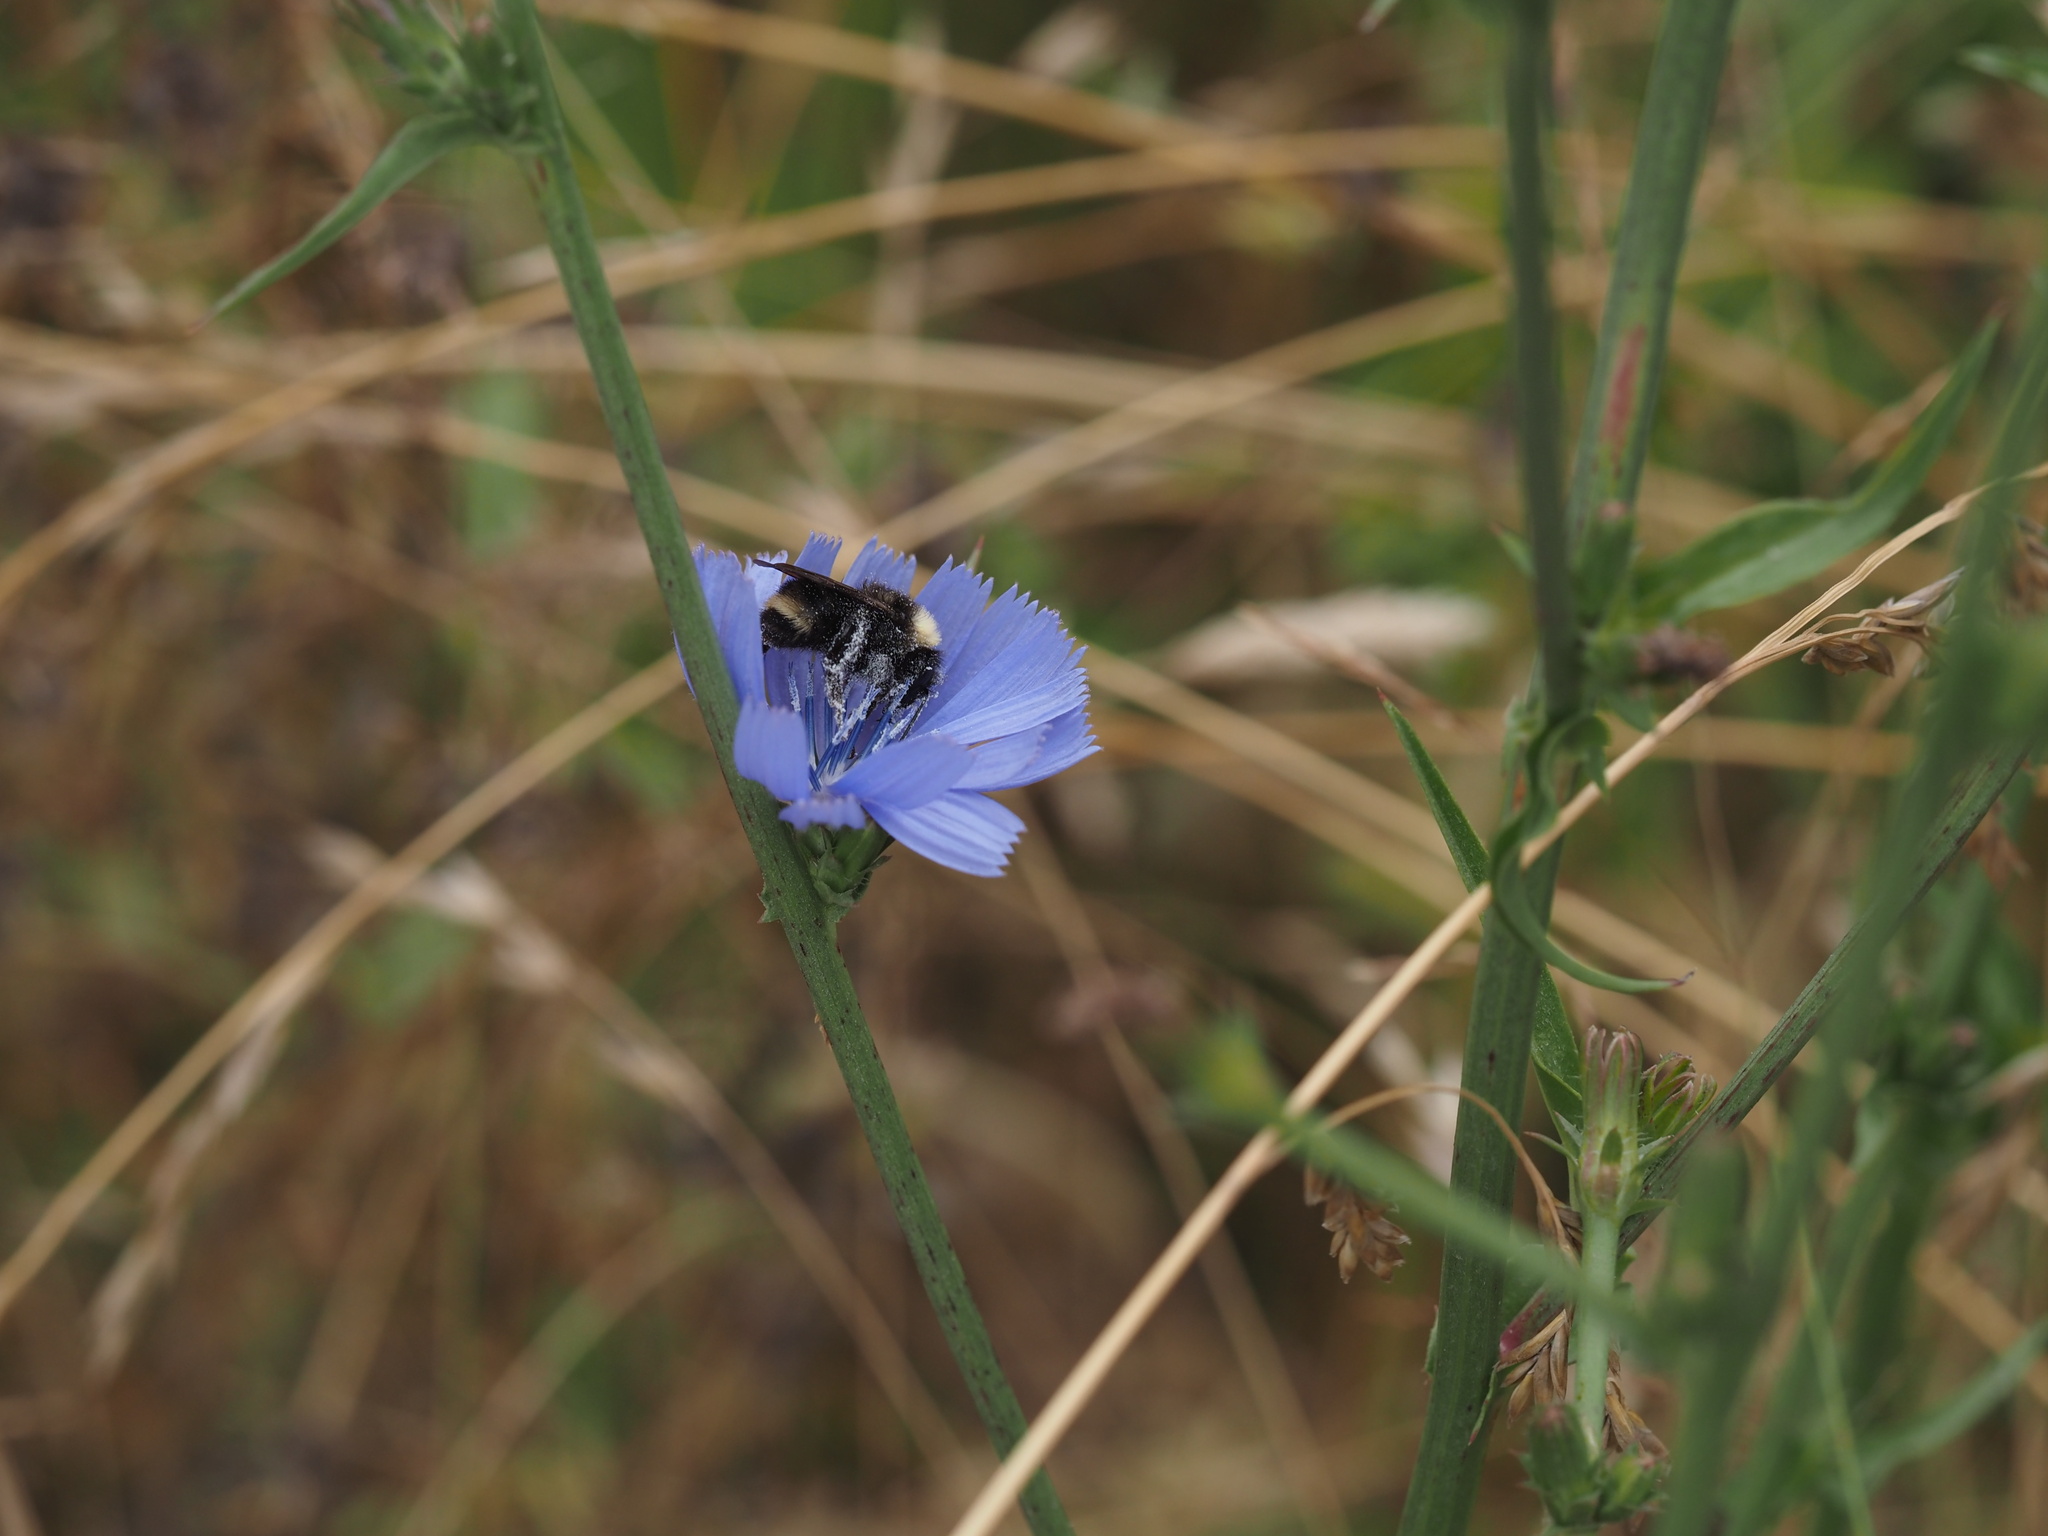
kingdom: Plantae
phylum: Tracheophyta
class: Magnoliopsida
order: Asterales
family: Asteraceae
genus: Cichorium
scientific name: Cichorium intybus
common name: Chicory
